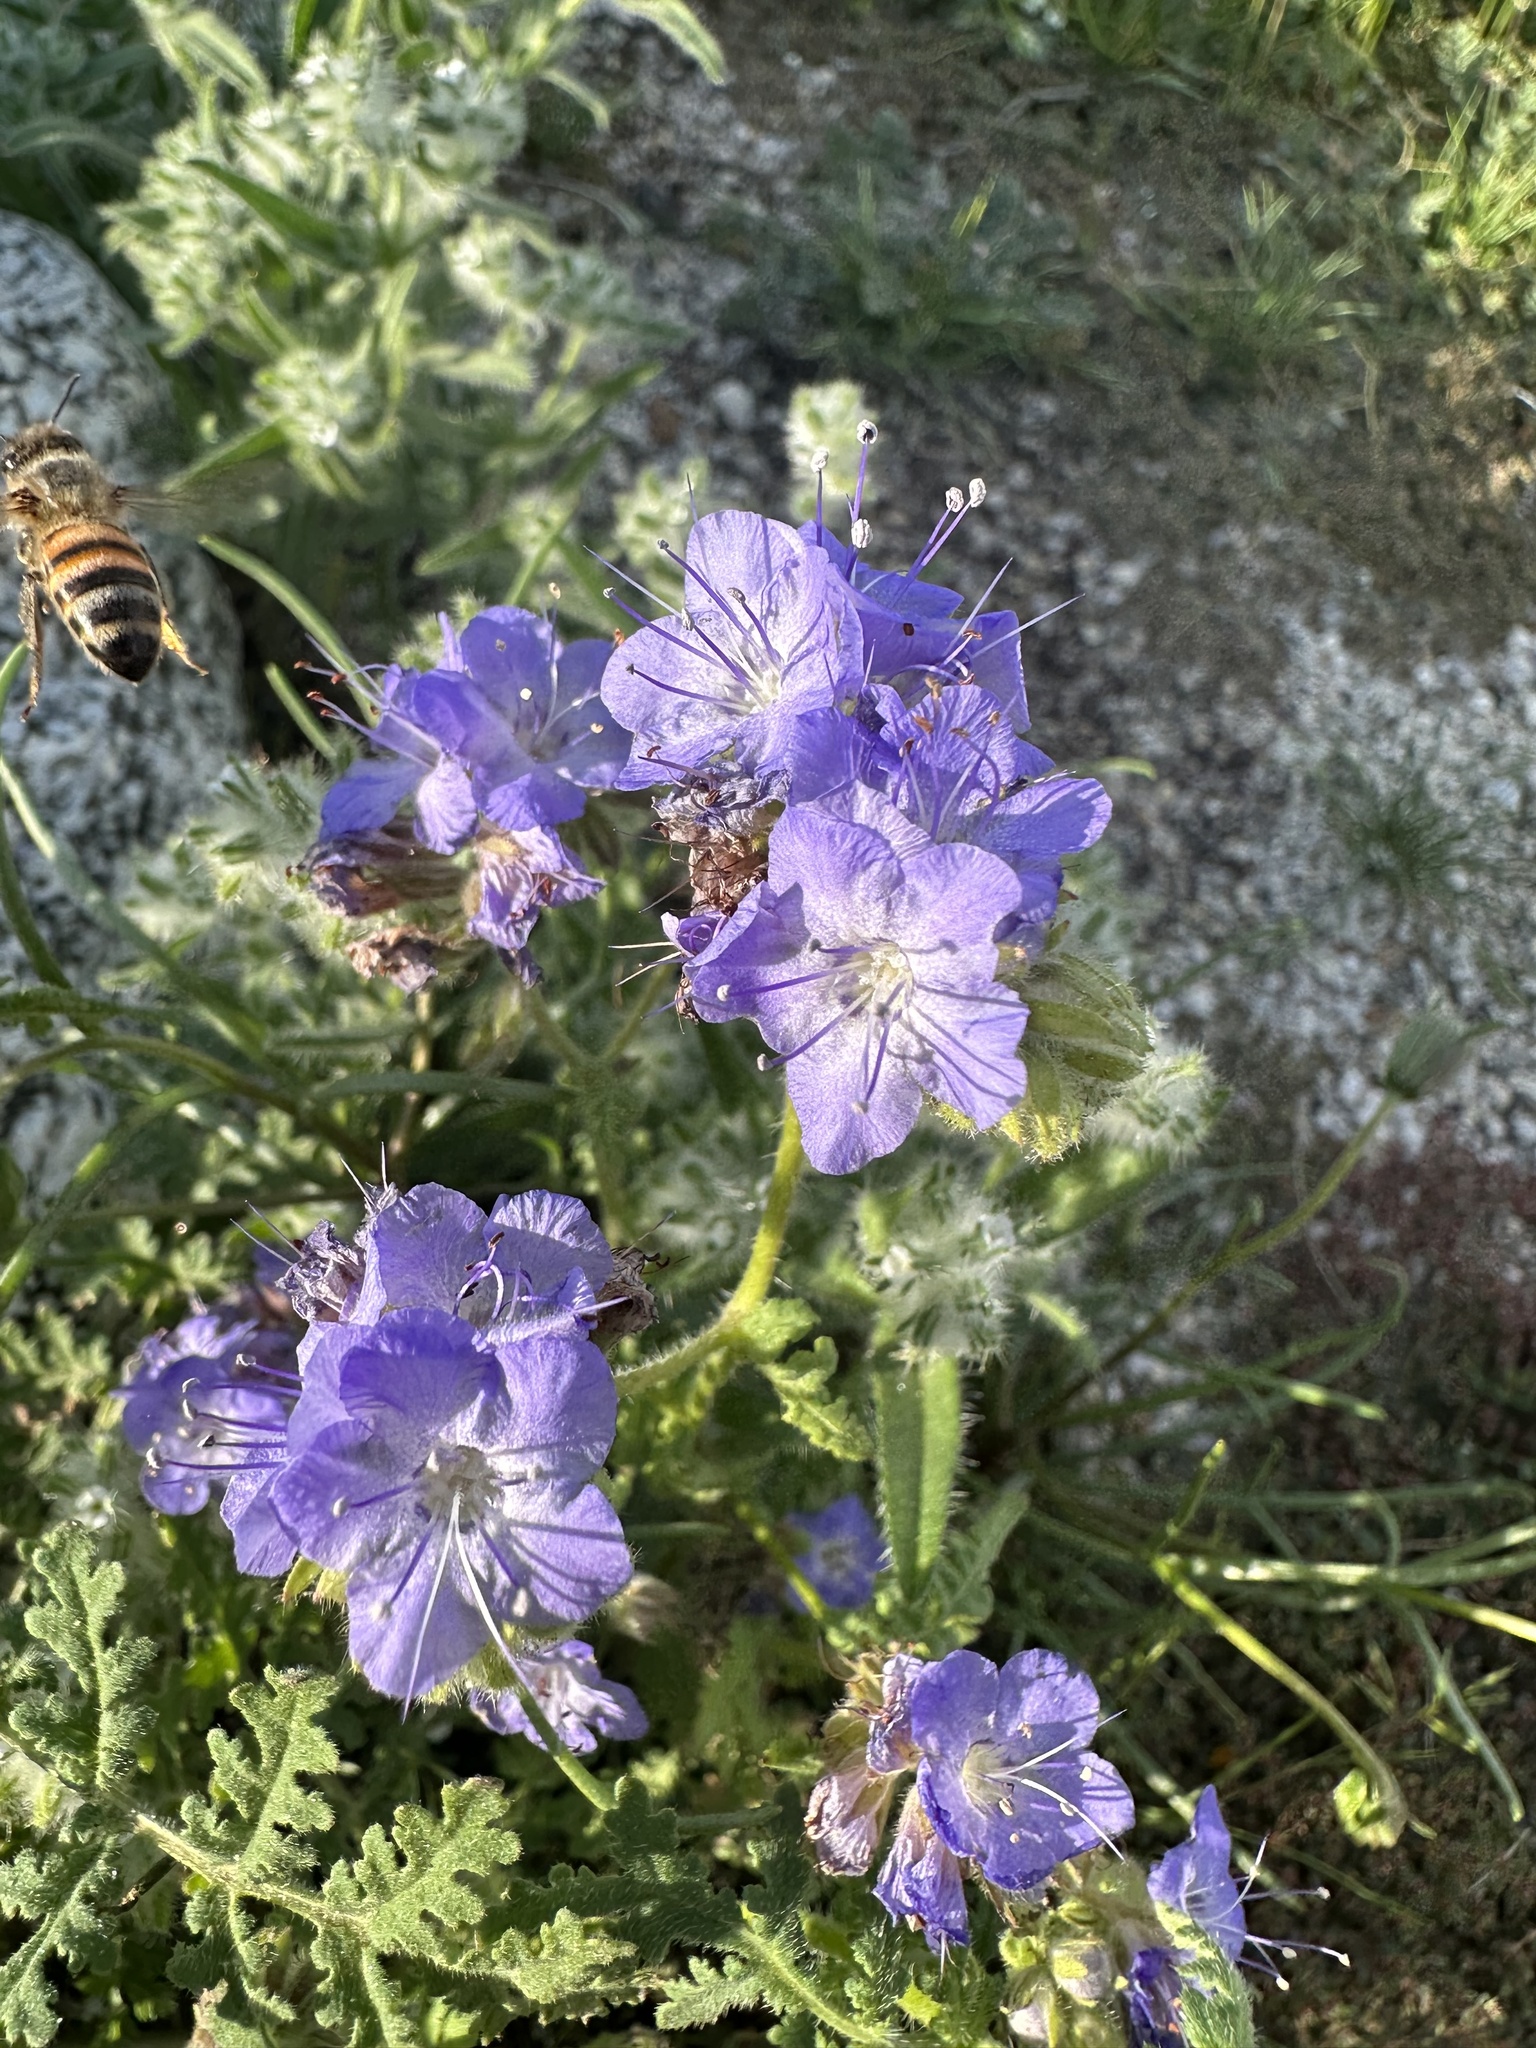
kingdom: Animalia
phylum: Arthropoda
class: Insecta
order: Hymenoptera
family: Apidae
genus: Apis
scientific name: Apis mellifera
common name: Honey bee
